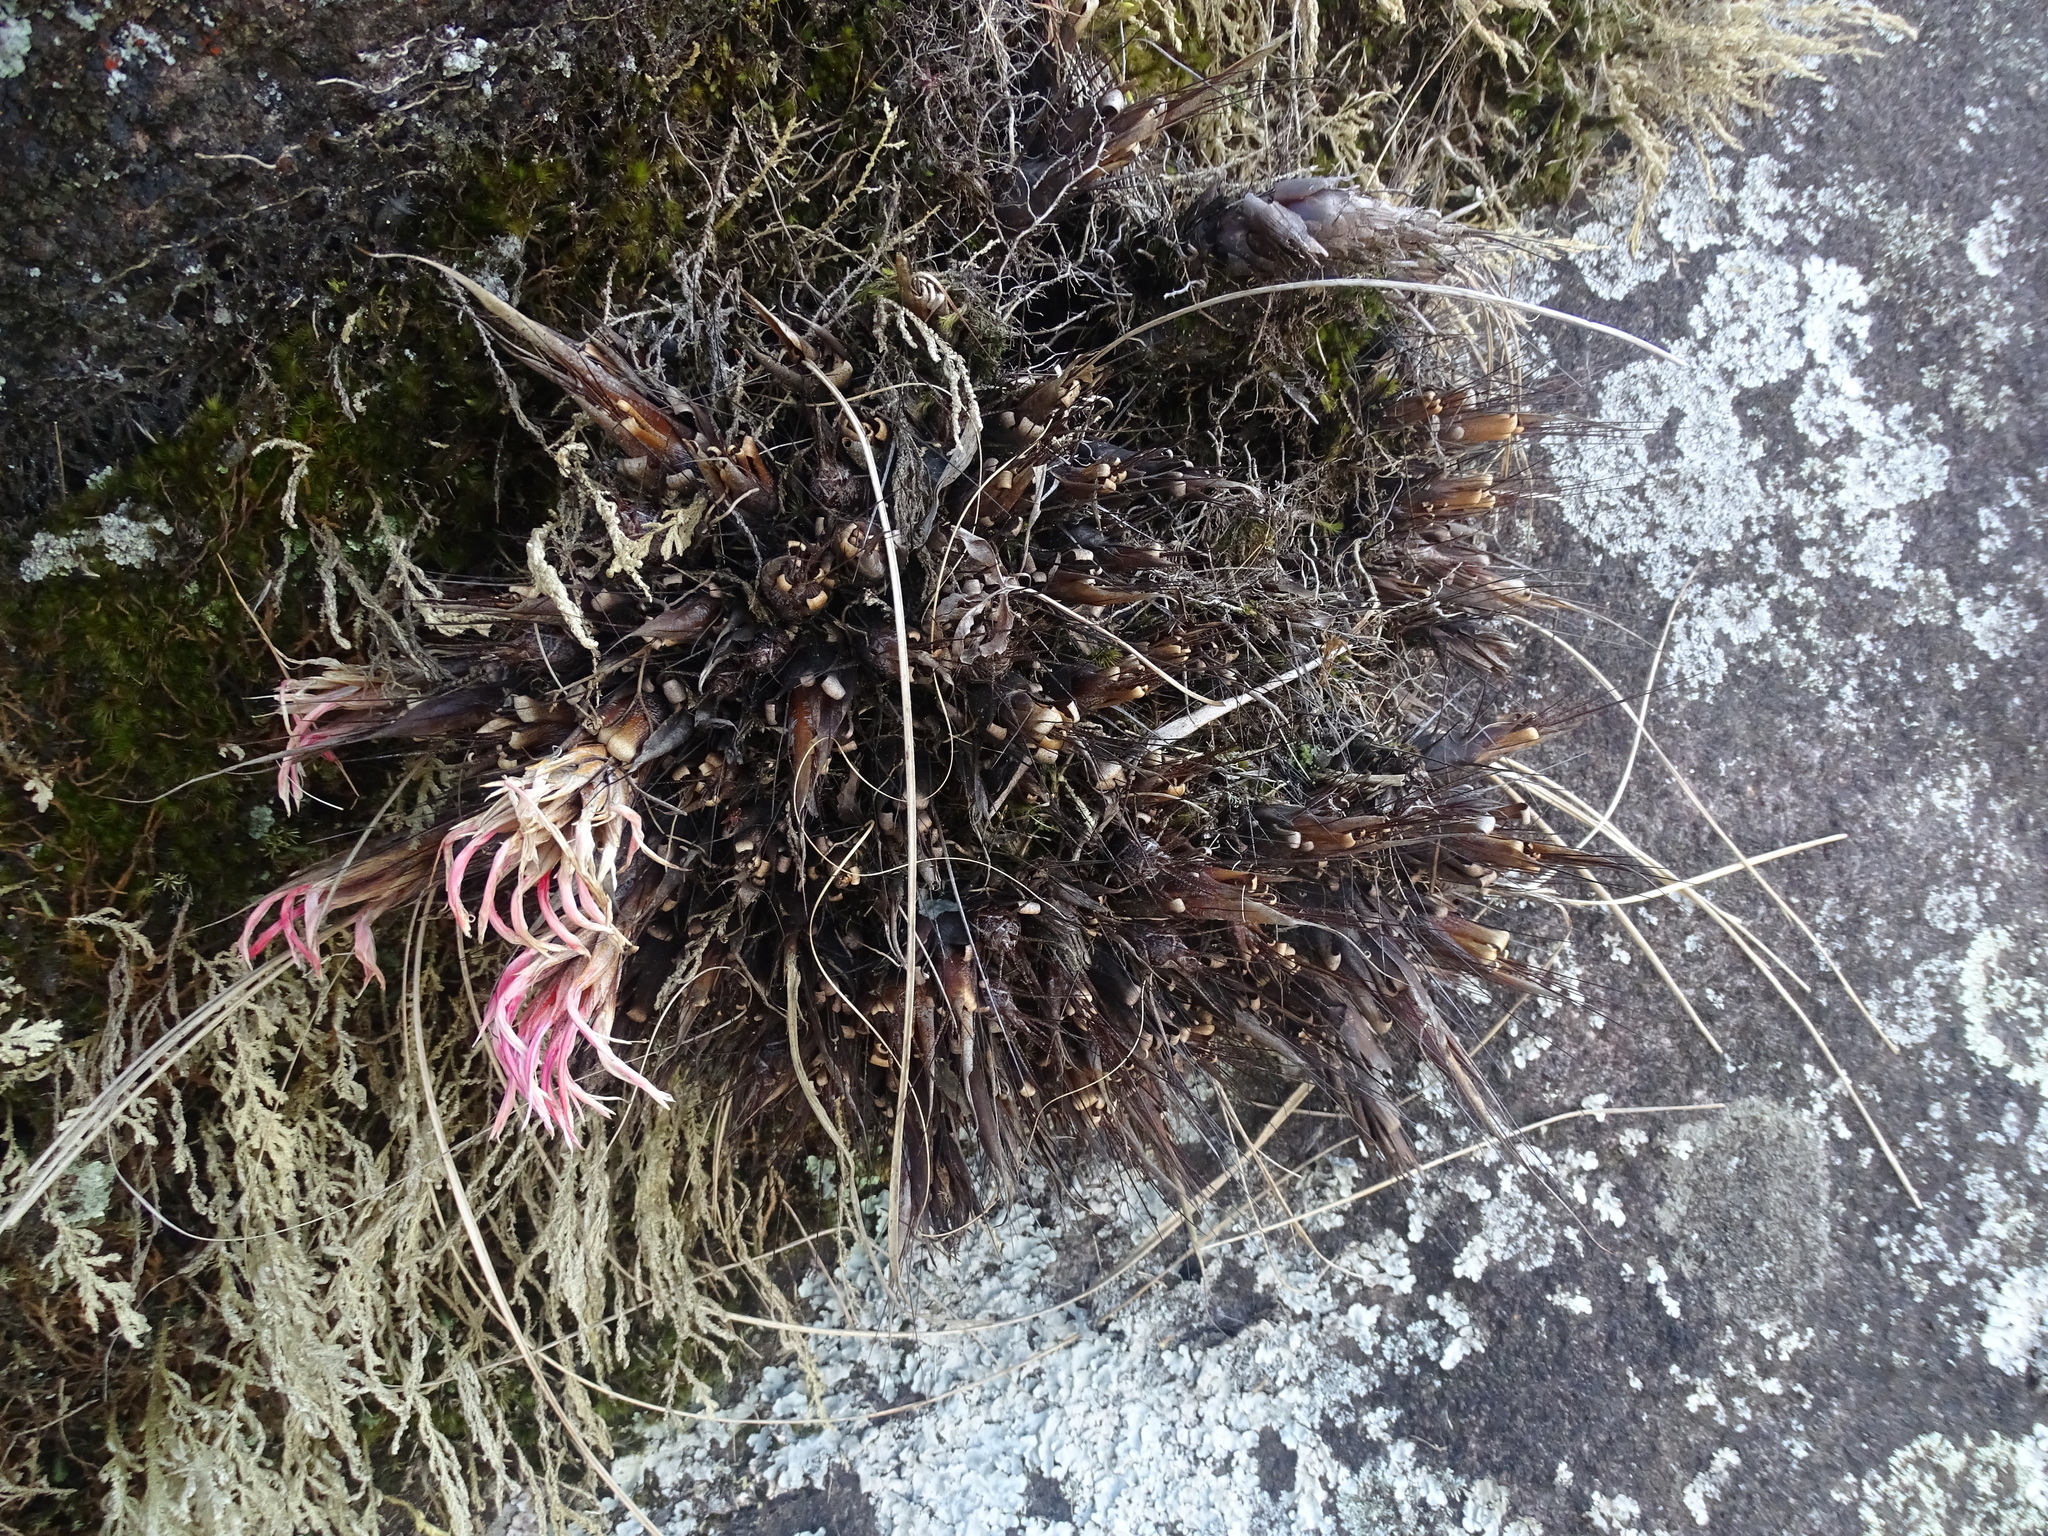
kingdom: Plantae
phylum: Tracheophyta
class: Liliopsida
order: Poales
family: Bromeliaceae
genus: Pitcairnia
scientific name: Pitcairnia heterophylla
